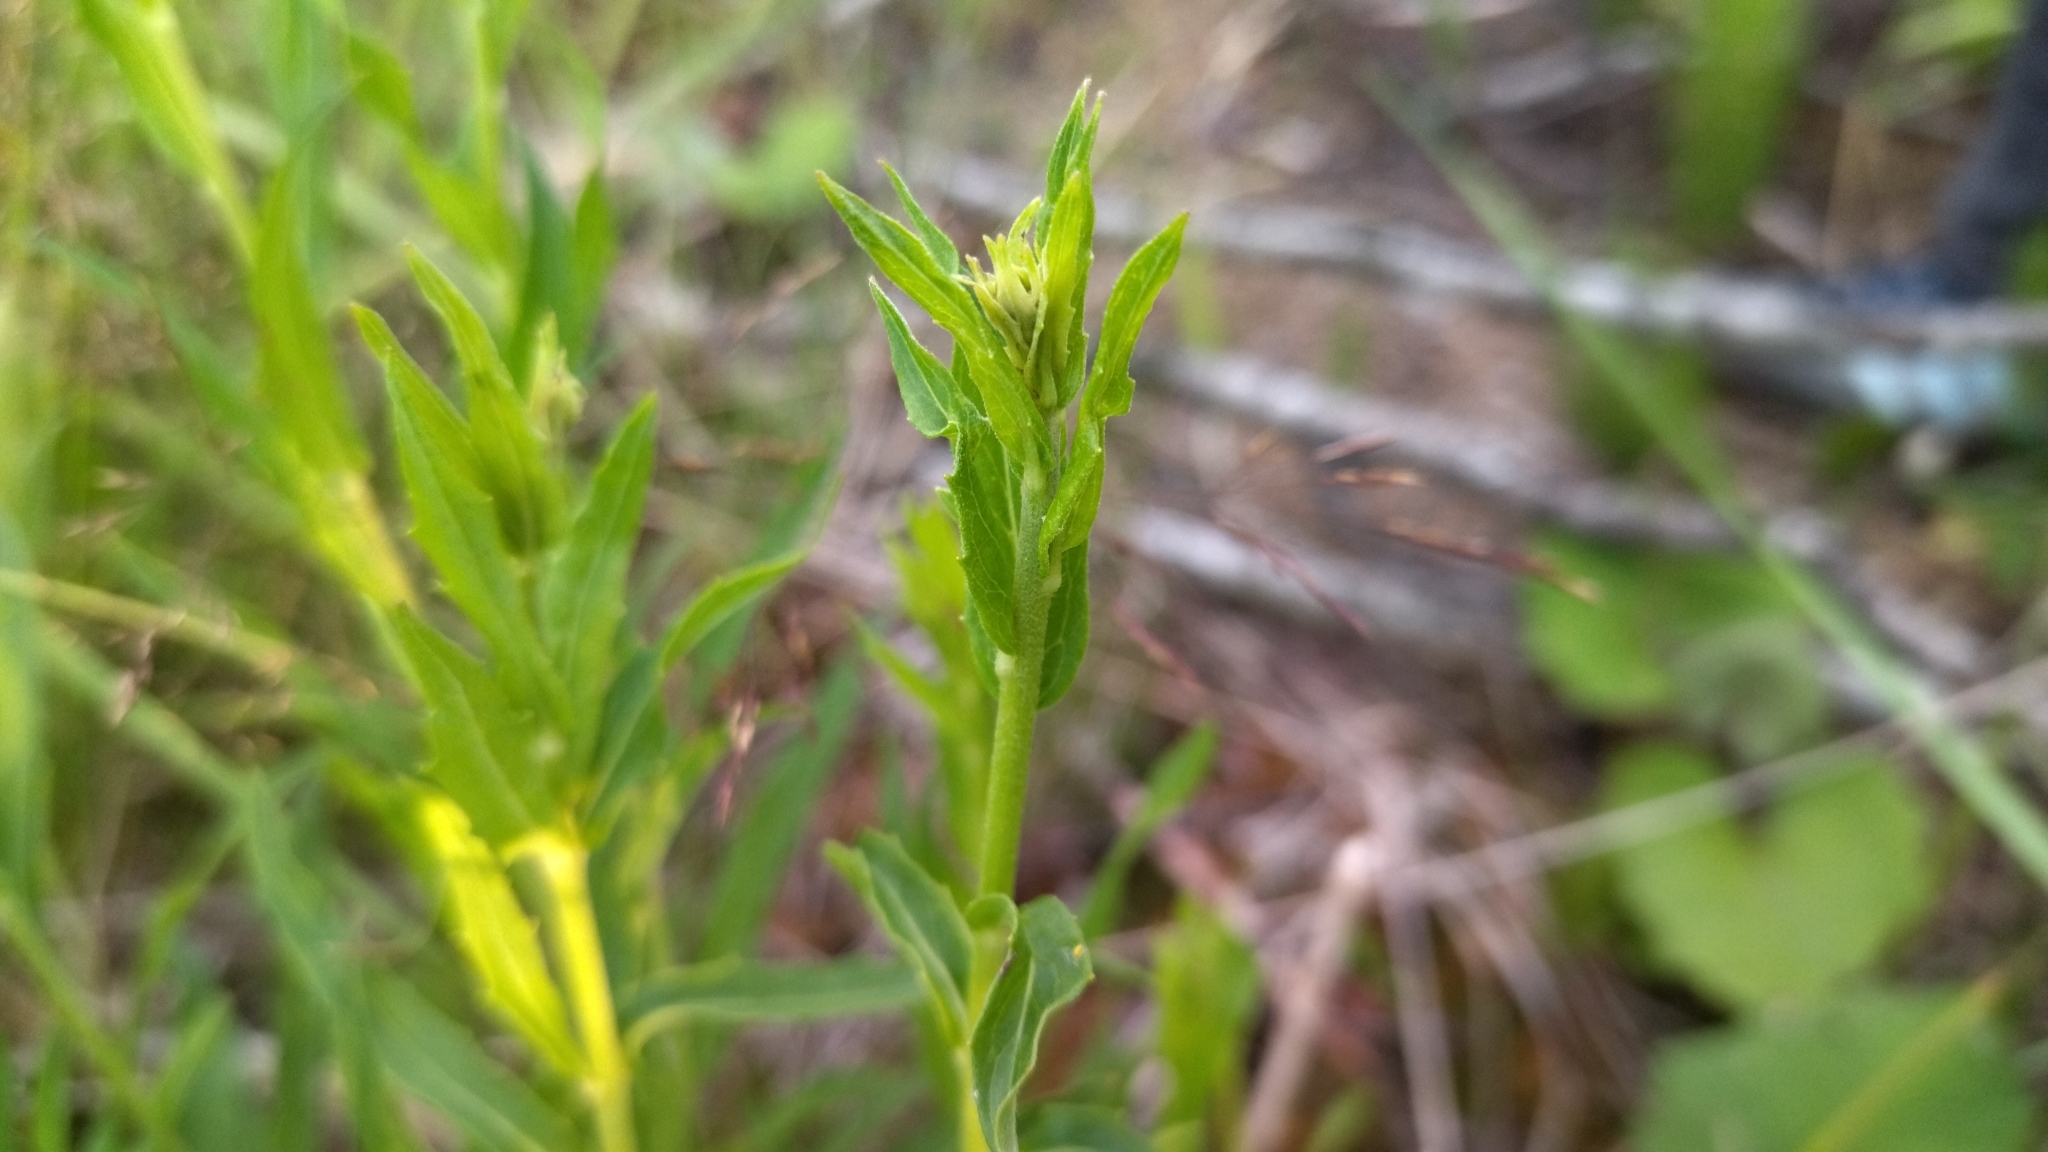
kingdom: Plantae
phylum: Tracheophyta
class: Magnoliopsida
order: Asterales
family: Asteraceae
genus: Hieracium
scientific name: Hieracium umbellatum
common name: Northern hawkweed
